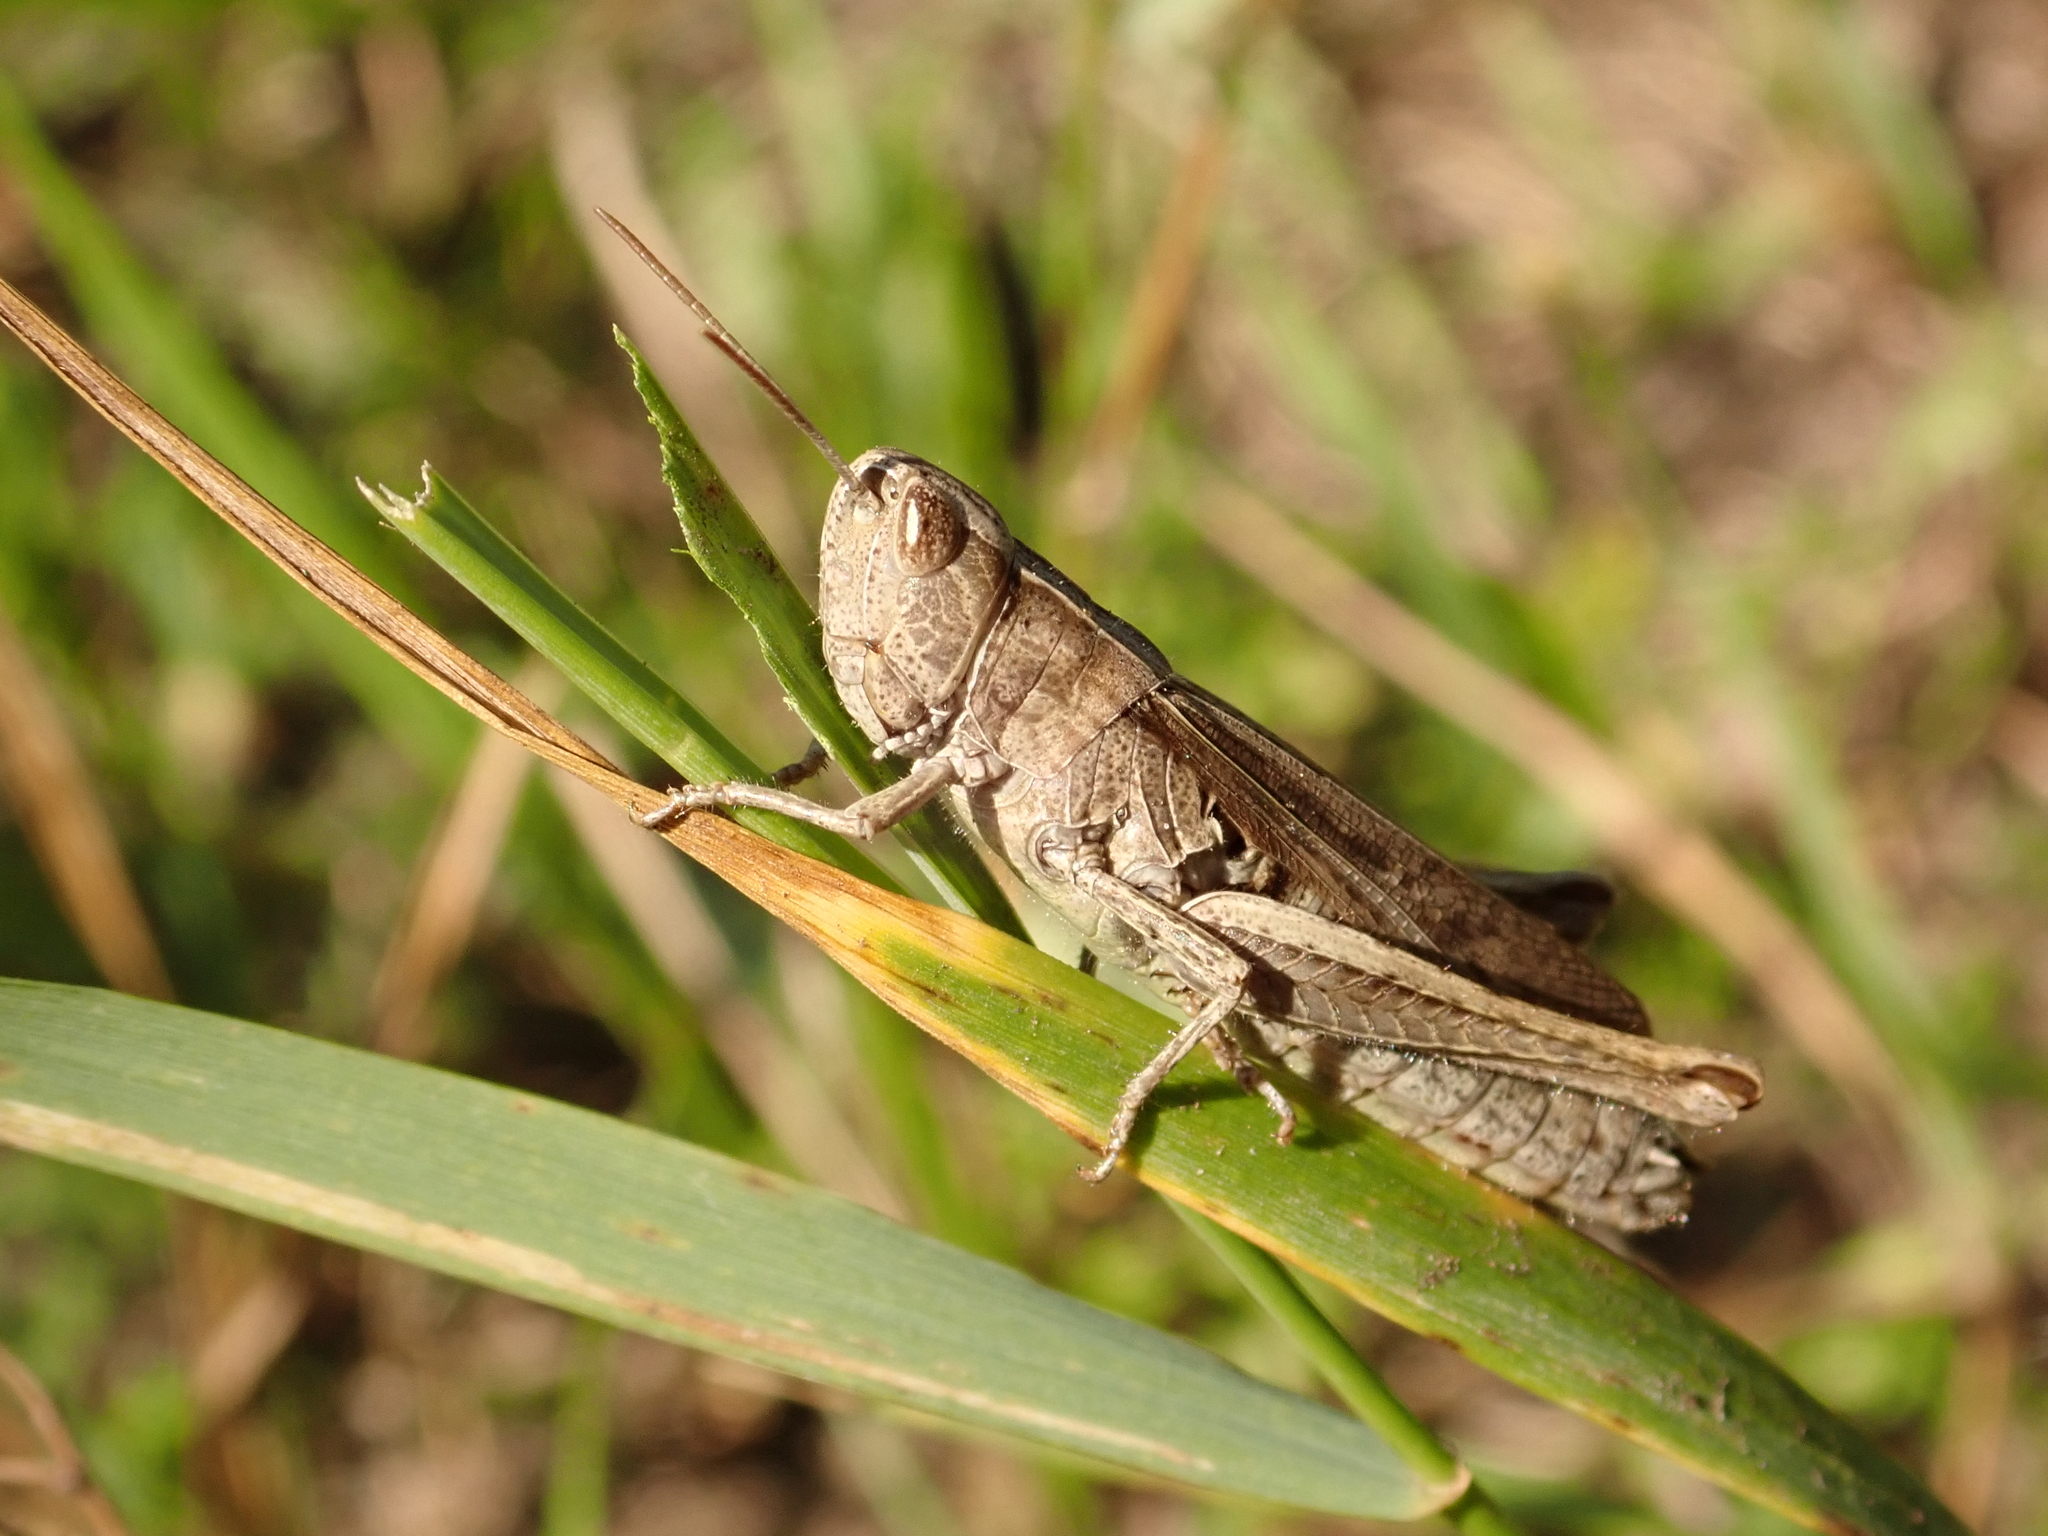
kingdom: Animalia
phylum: Arthropoda
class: Insecta
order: Orthoptera
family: Acrididae
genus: Chorthippus
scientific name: Chorthippus dorsatus
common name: Steppe grasshopper
